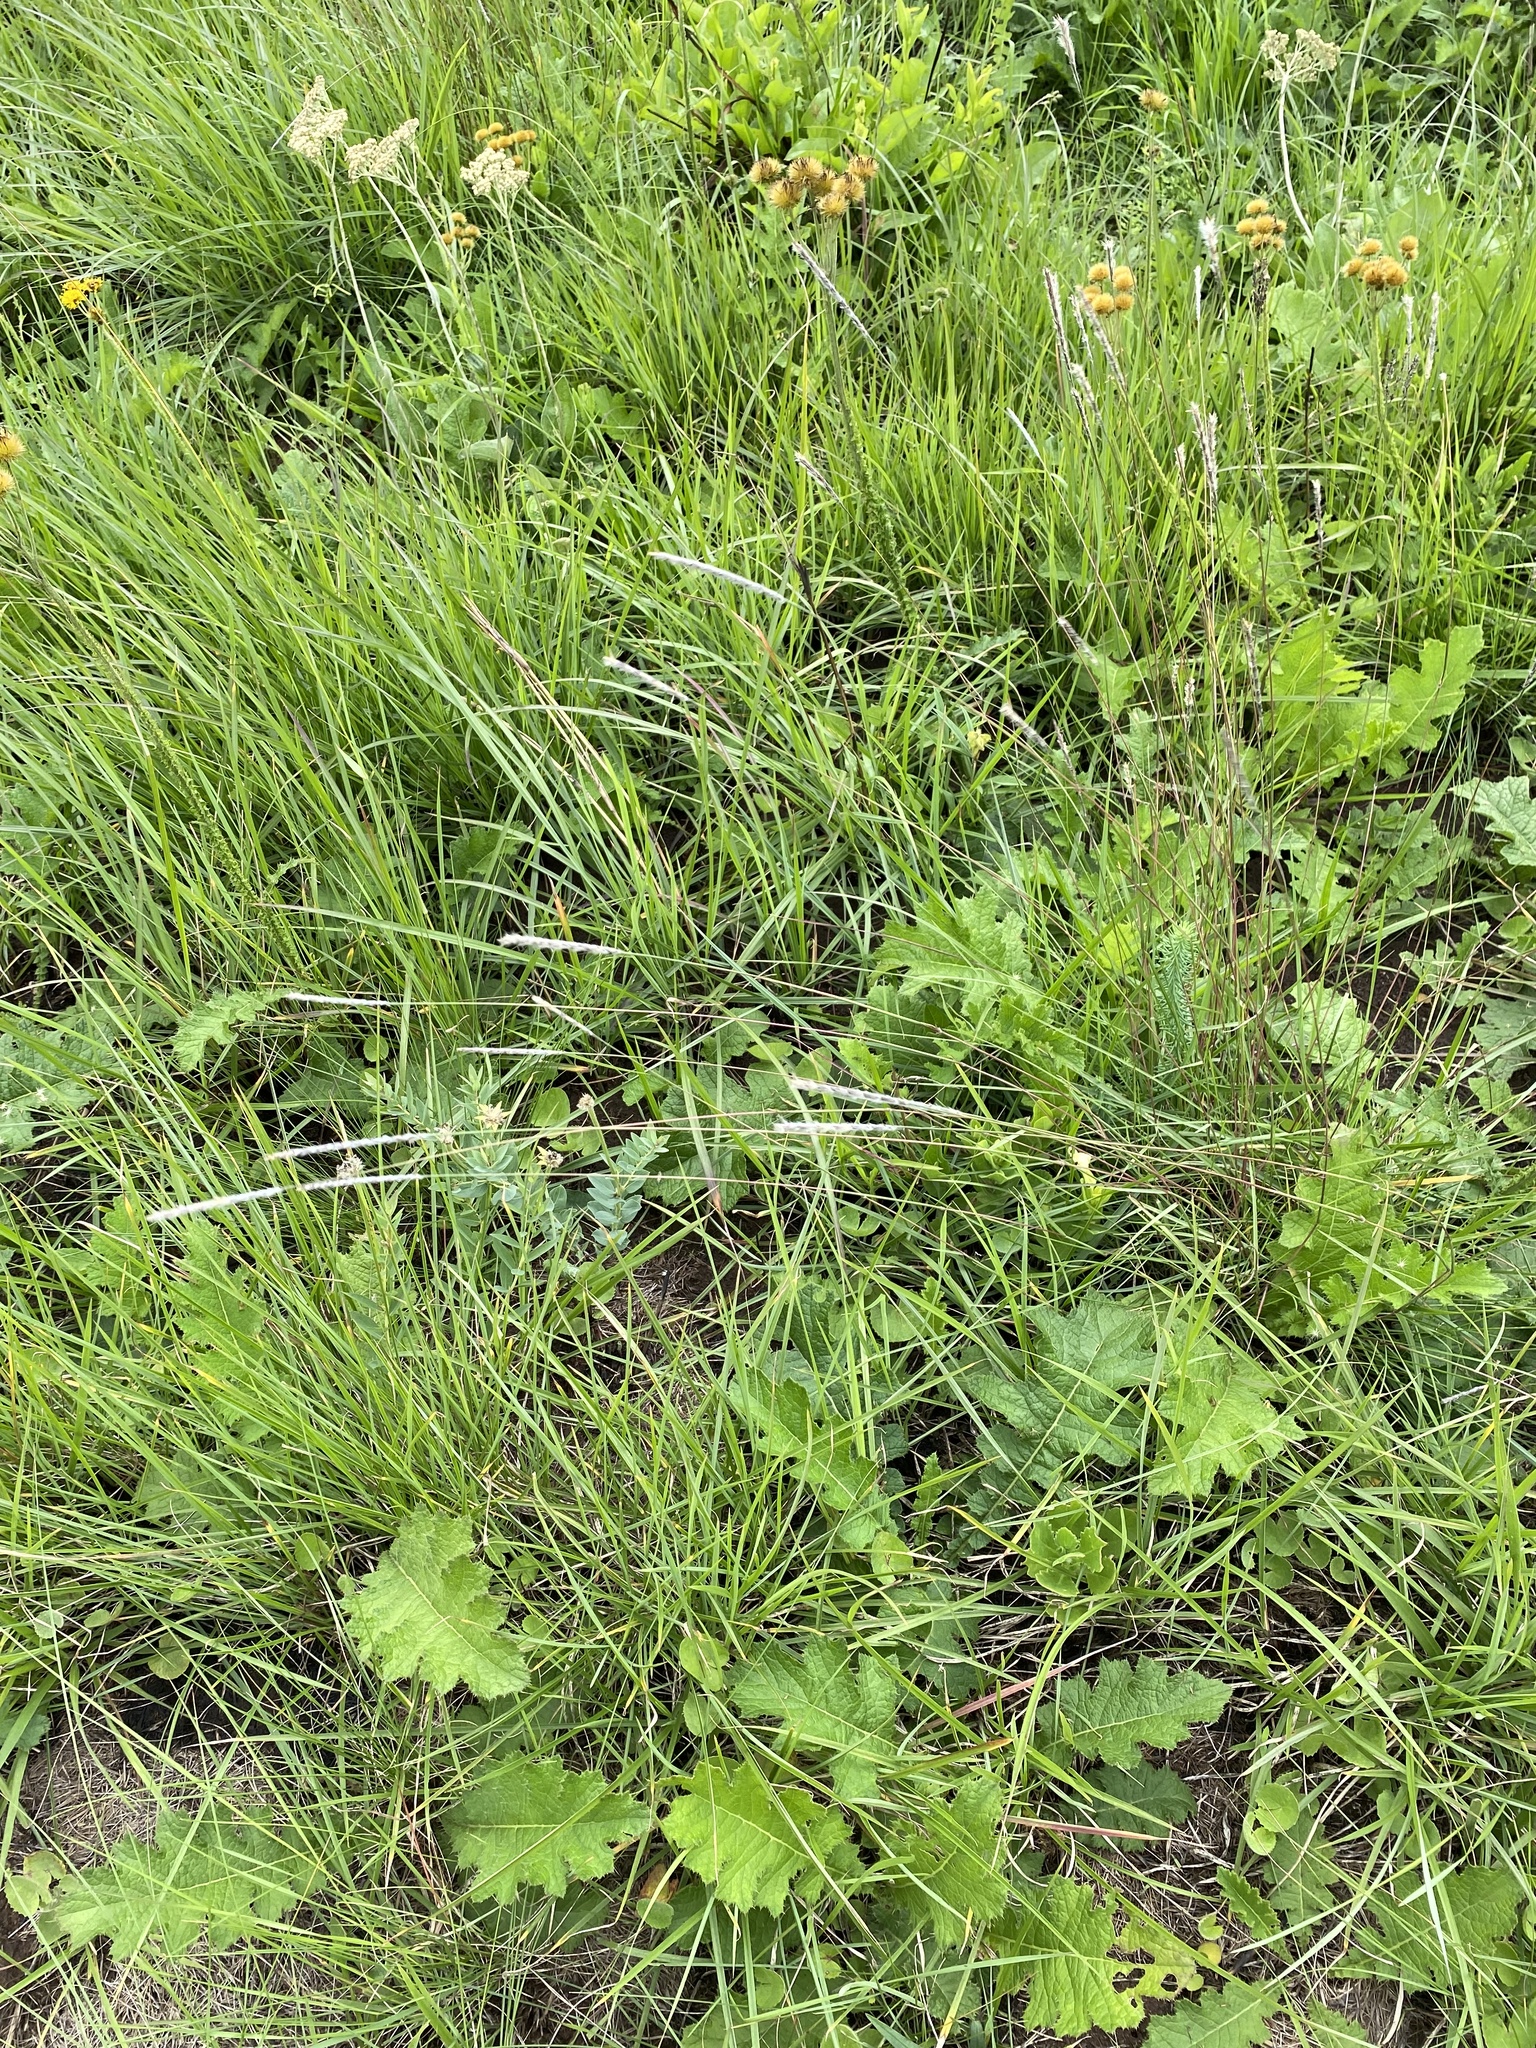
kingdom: Plantae
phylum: Tracheophyta
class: Liliopsida
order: Poales
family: Poaceae
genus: Elionurus
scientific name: Elionurus muticus
